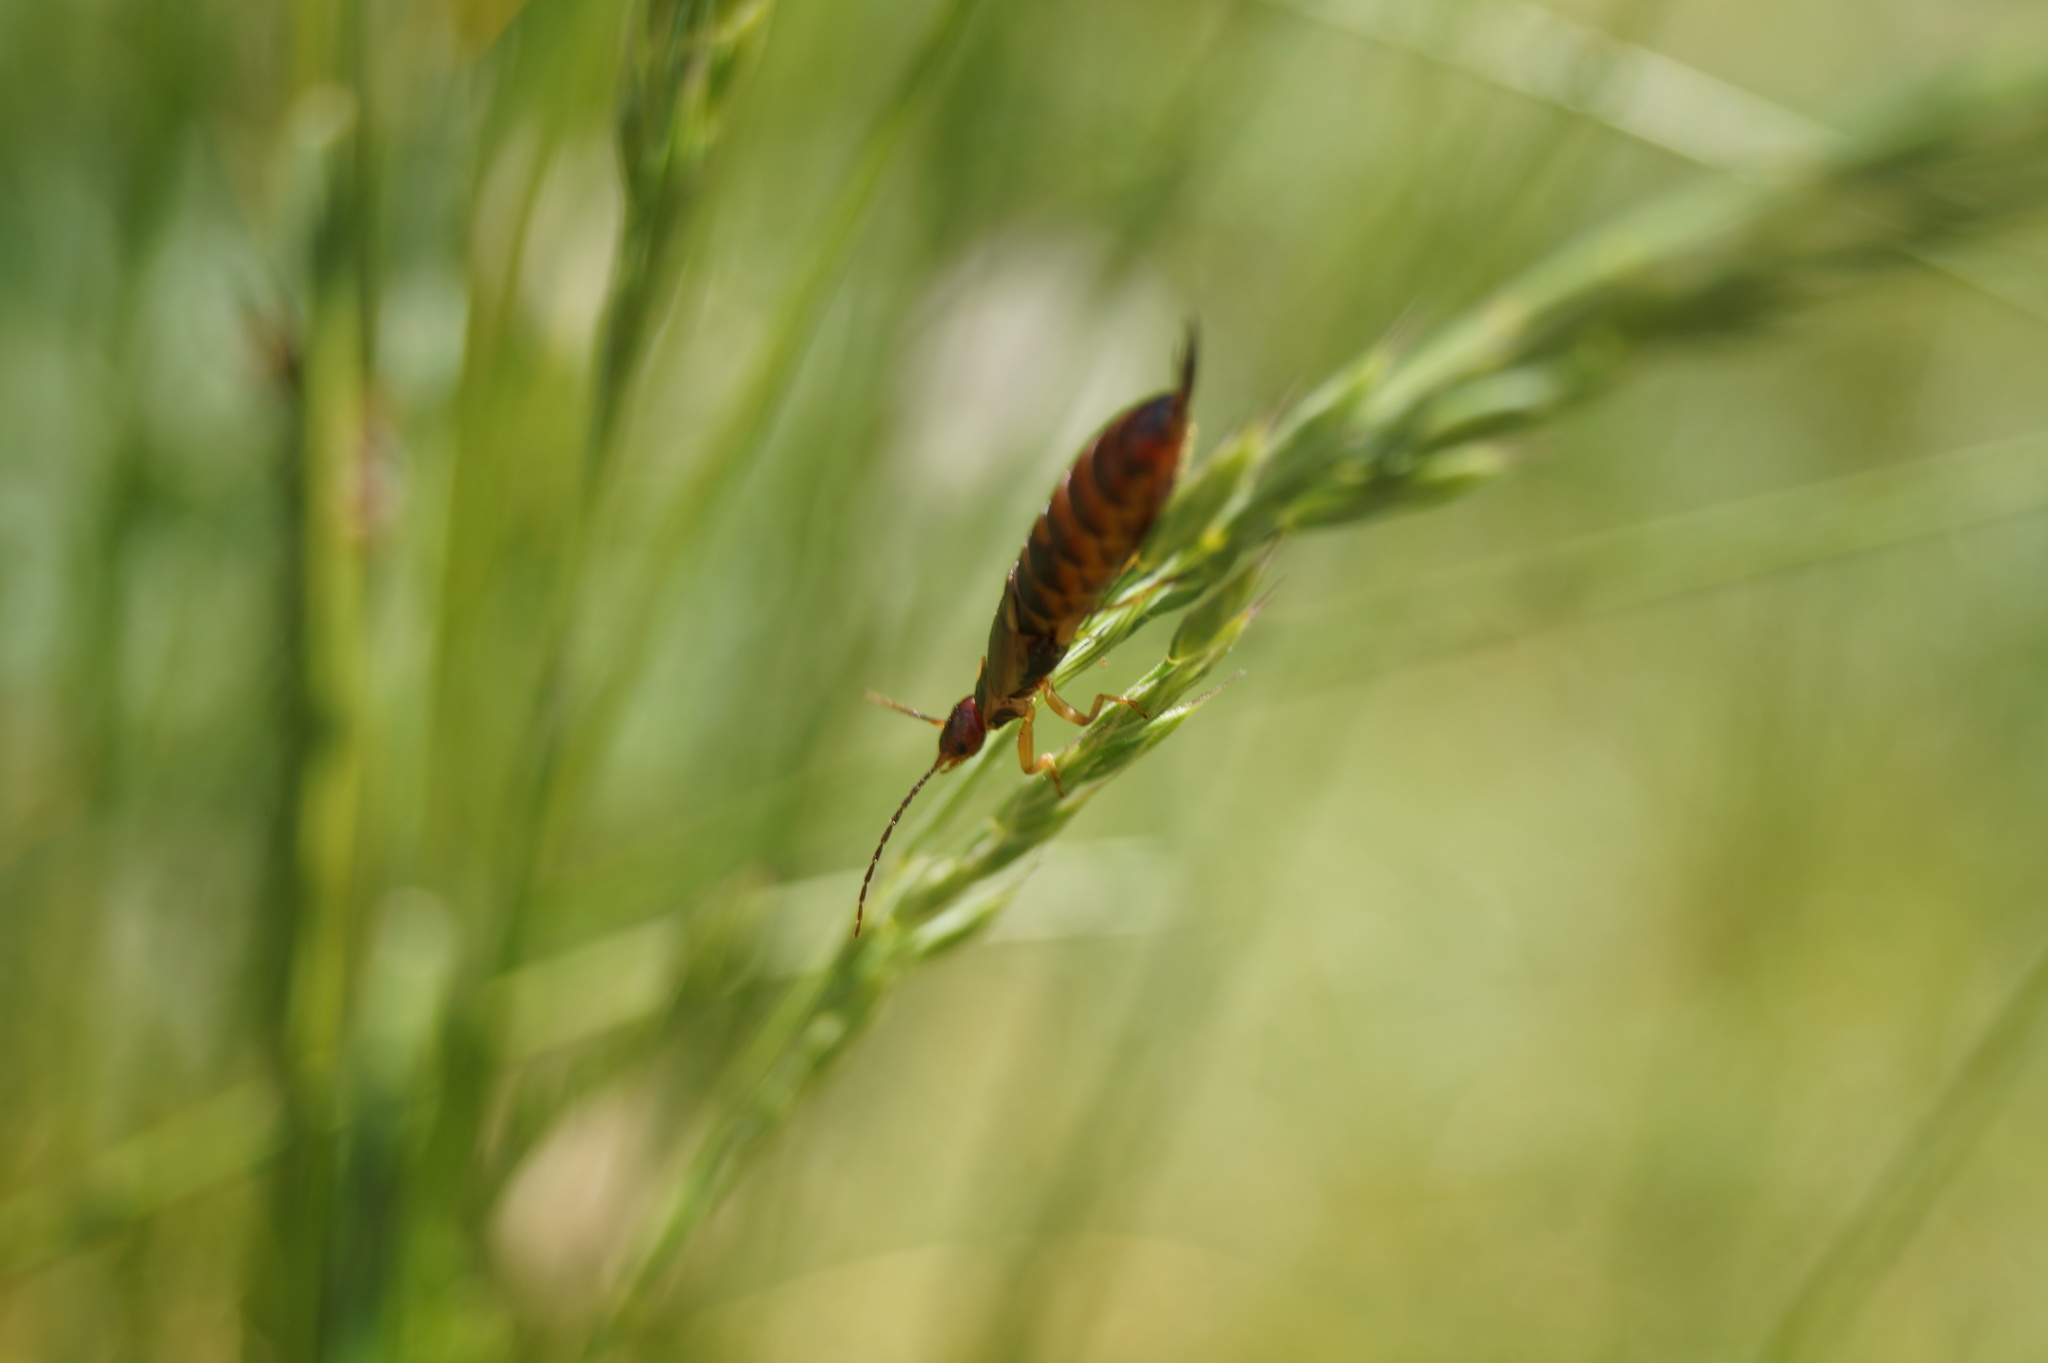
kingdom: Animalia
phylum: Arthropoda
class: Insecta
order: Dermaptera
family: Forficulidae
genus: Forficula
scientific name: Forficula
